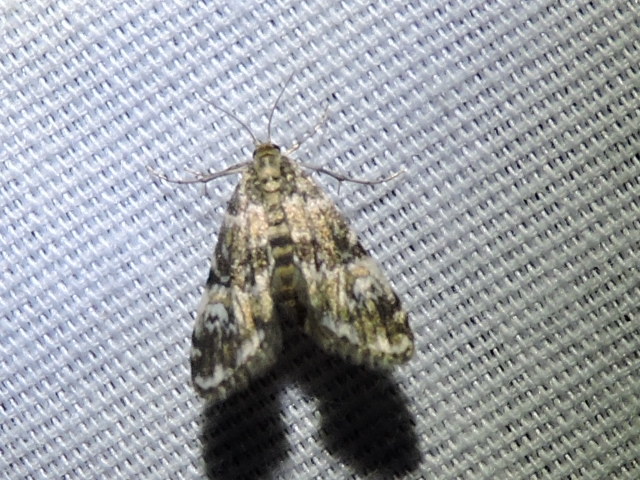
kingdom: Animalia
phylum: Arthropoda
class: Insecta
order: Lepidoptera
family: Crambidae
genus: Elophila
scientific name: Elophila obliteralis
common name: Waterlily leafcutter moth
